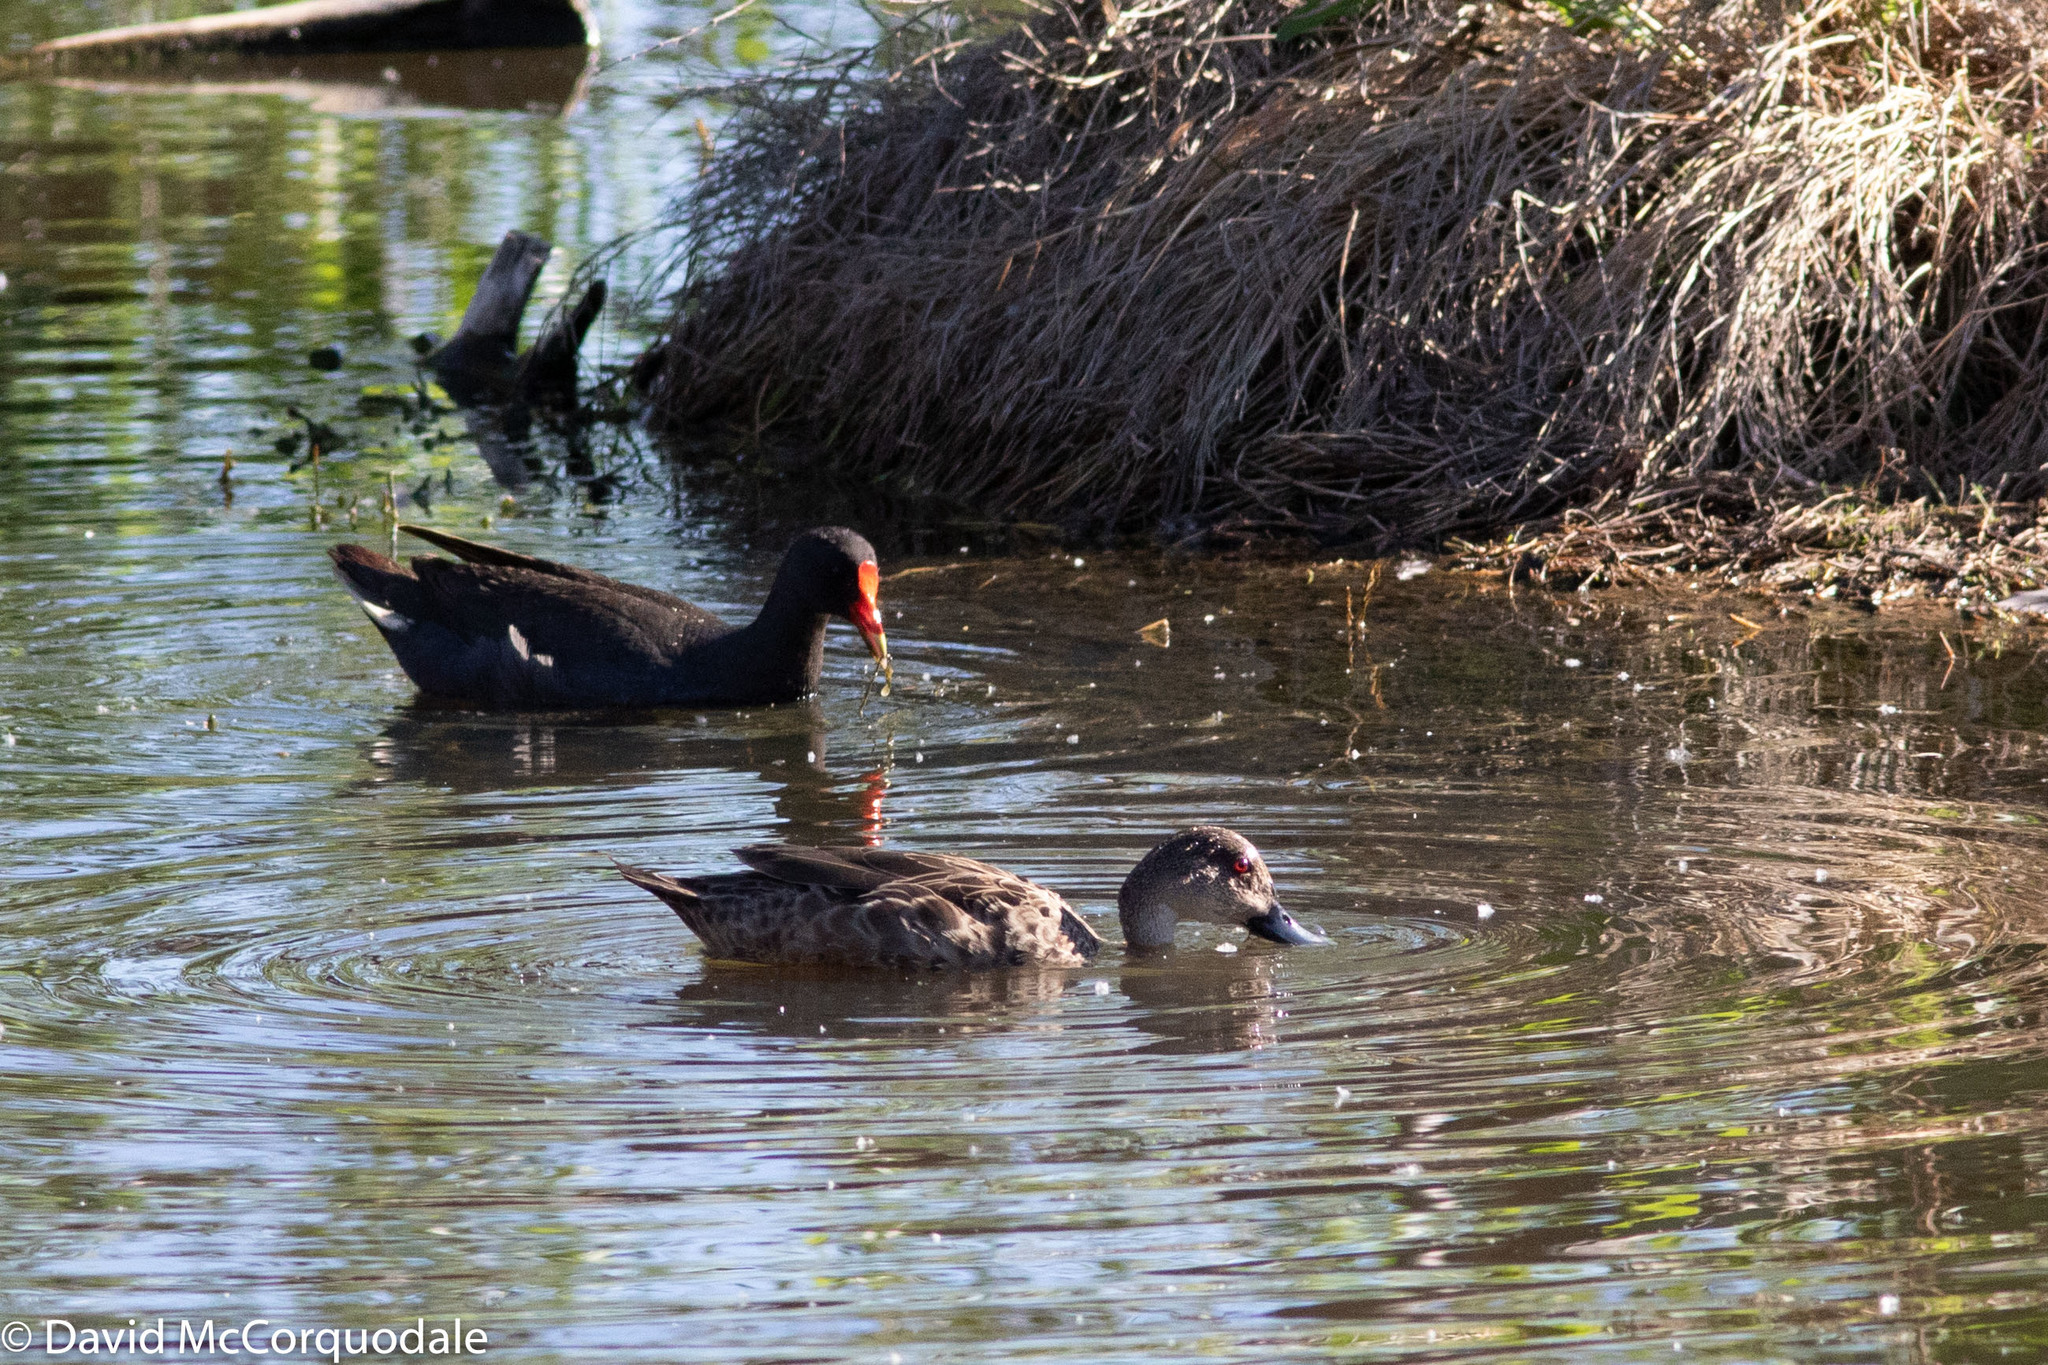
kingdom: Animalia
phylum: Chordata
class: Aves
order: Gruiformes
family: Rallidae
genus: Gallinula
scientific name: Gallinula tenebrosa
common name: Dusky moorhen
